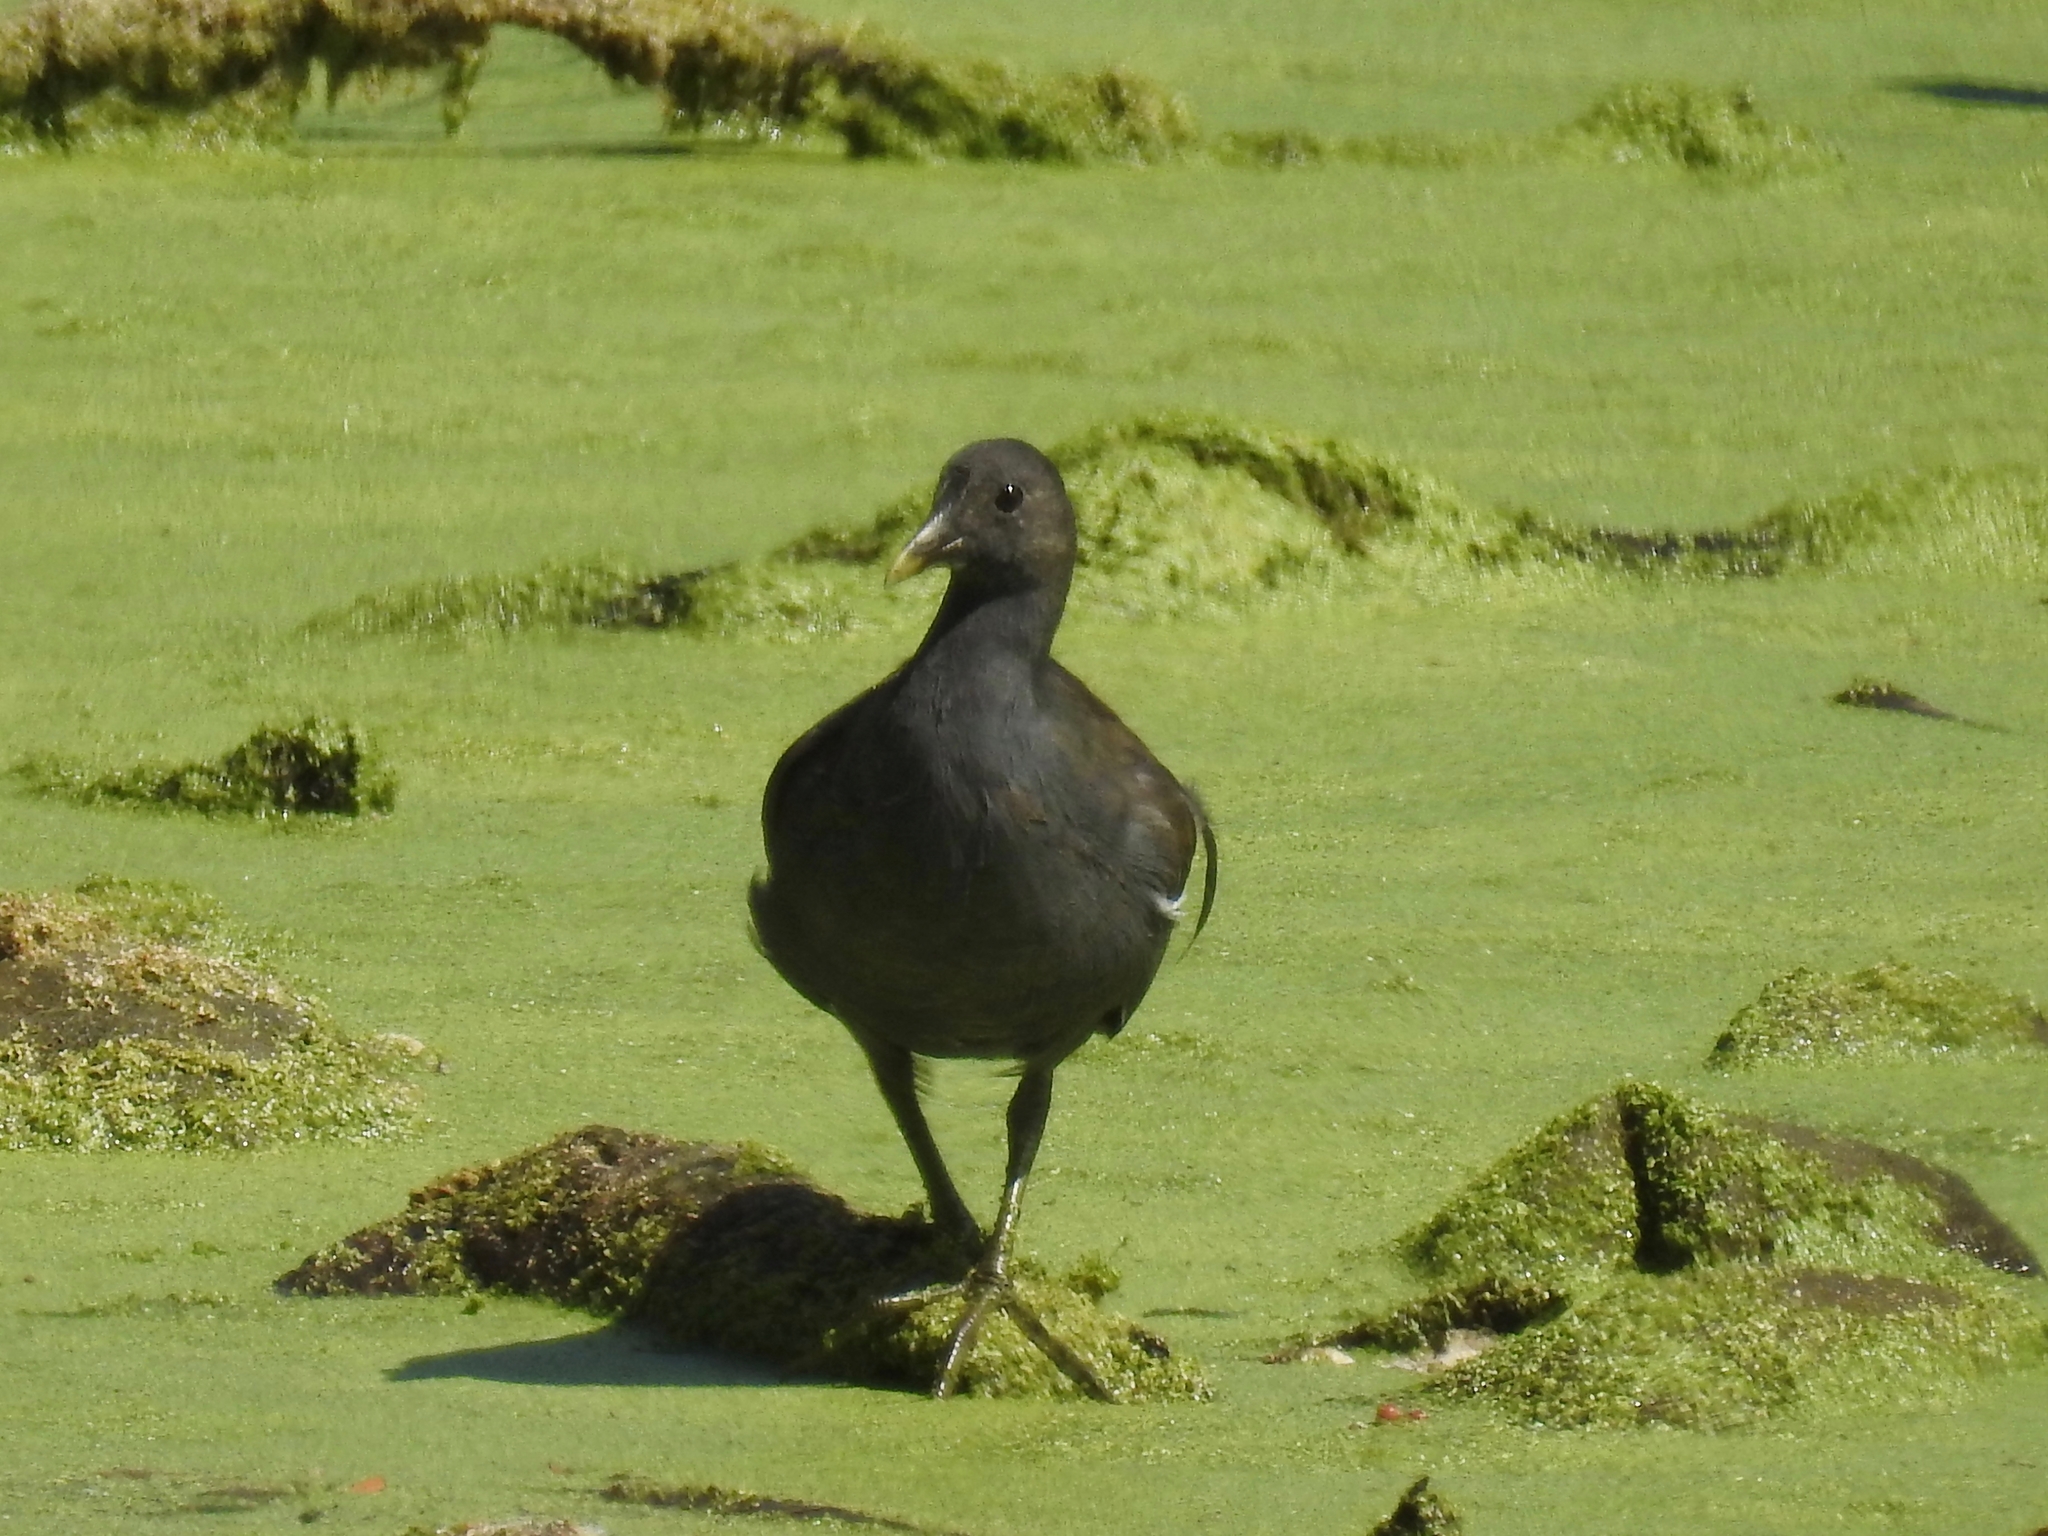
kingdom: Animalia
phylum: Chordata
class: Aves
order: Gruiformes
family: Rallidae
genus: Gallinula
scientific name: Gallinula chloropus
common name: Common moorhen
